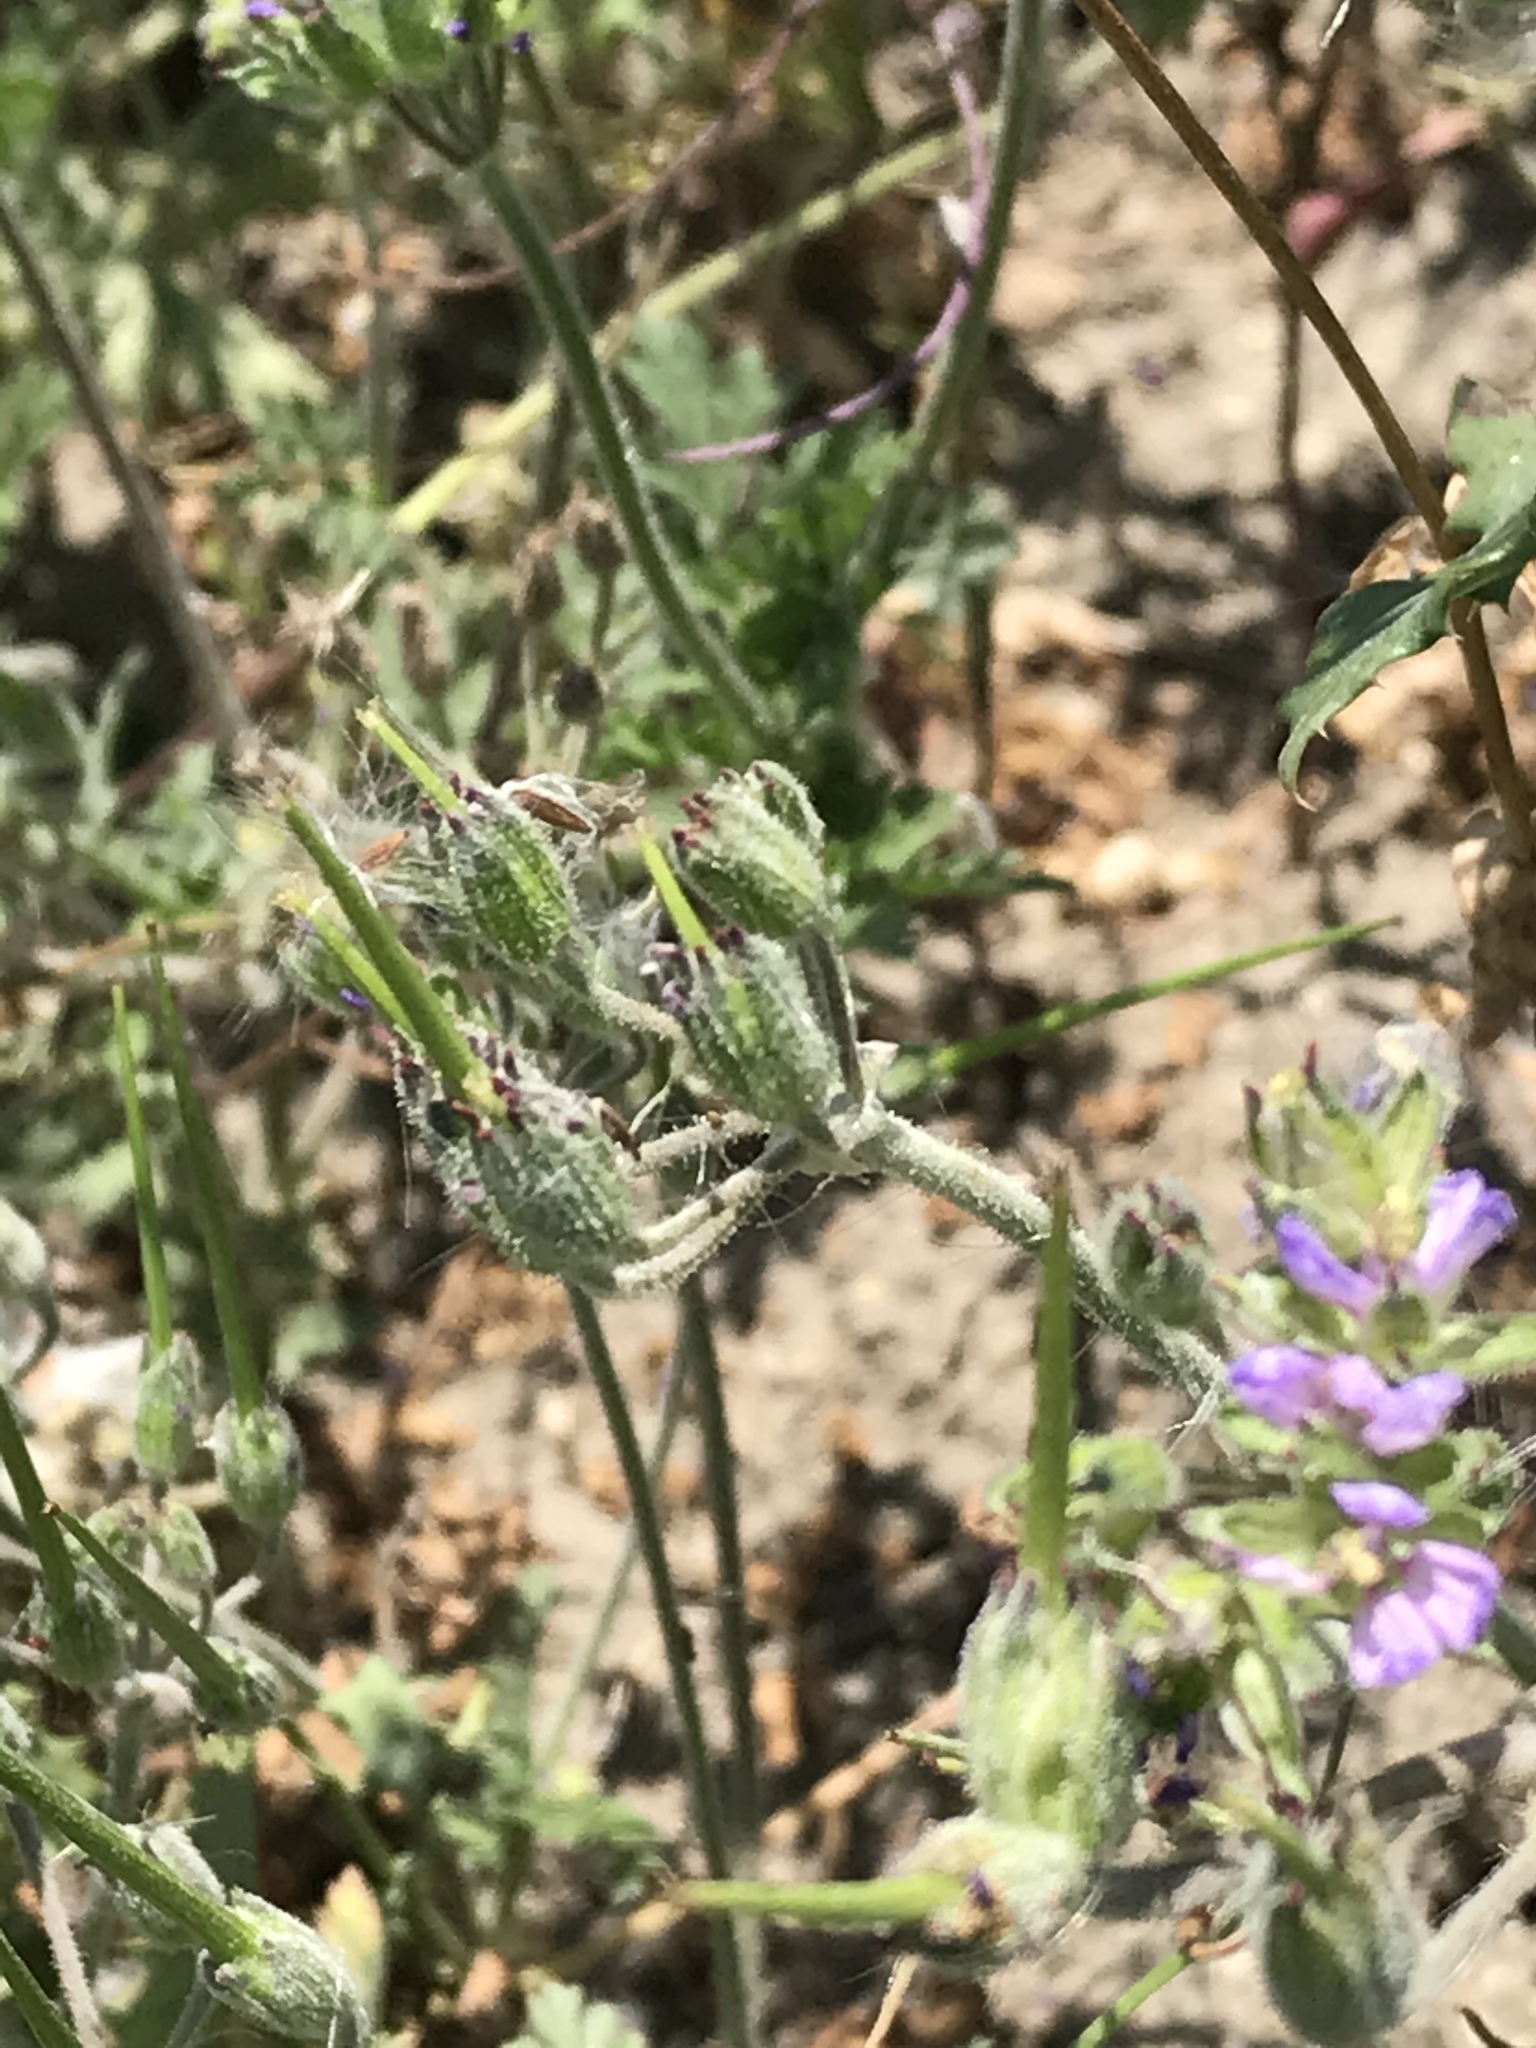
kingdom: Plantae
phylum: Tracheophyta
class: Magnoliopsida
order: Geraniales
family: Geraniaceae
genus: Erodium
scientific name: Erodium moschatum
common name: Musk stork's-bill
